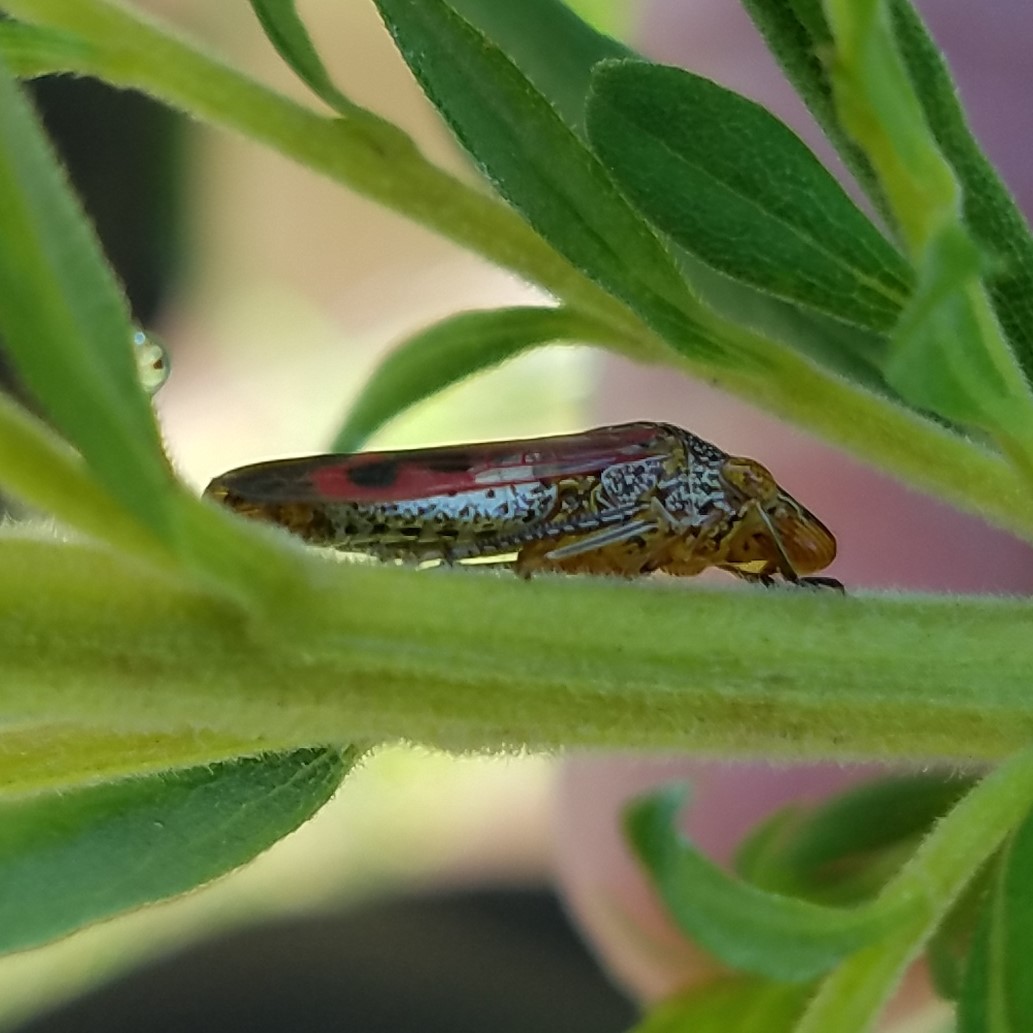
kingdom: Animalia
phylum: Arthropoda
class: Insecta
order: Hemiptera
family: Cicadellidae
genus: Homalodisca
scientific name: Homalodisca vitripennis
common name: Glassy-winged sharpshooter
